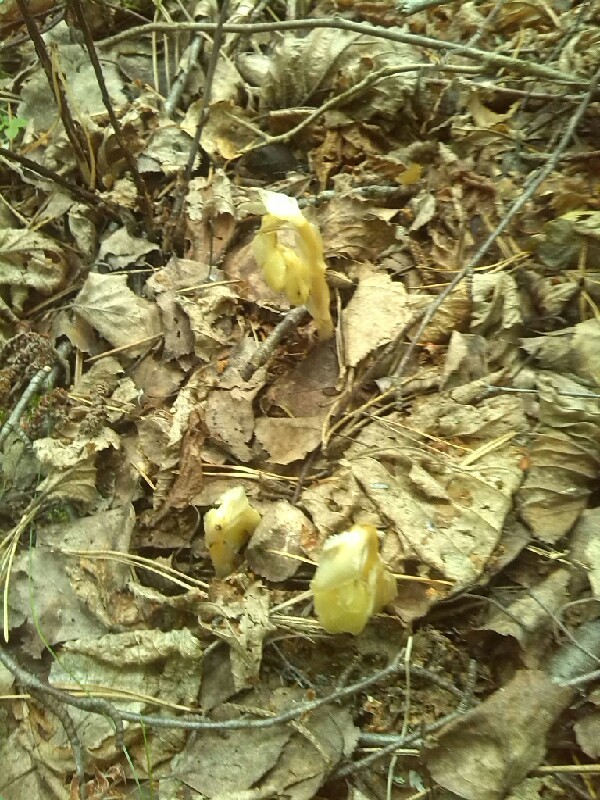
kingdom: Plantae
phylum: Tracheophyta
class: Magnoliopsida
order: Ericales
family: Ericaceae
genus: Hypopitys
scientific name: Hypopitys monotropa
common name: Yellow bird's-nest
